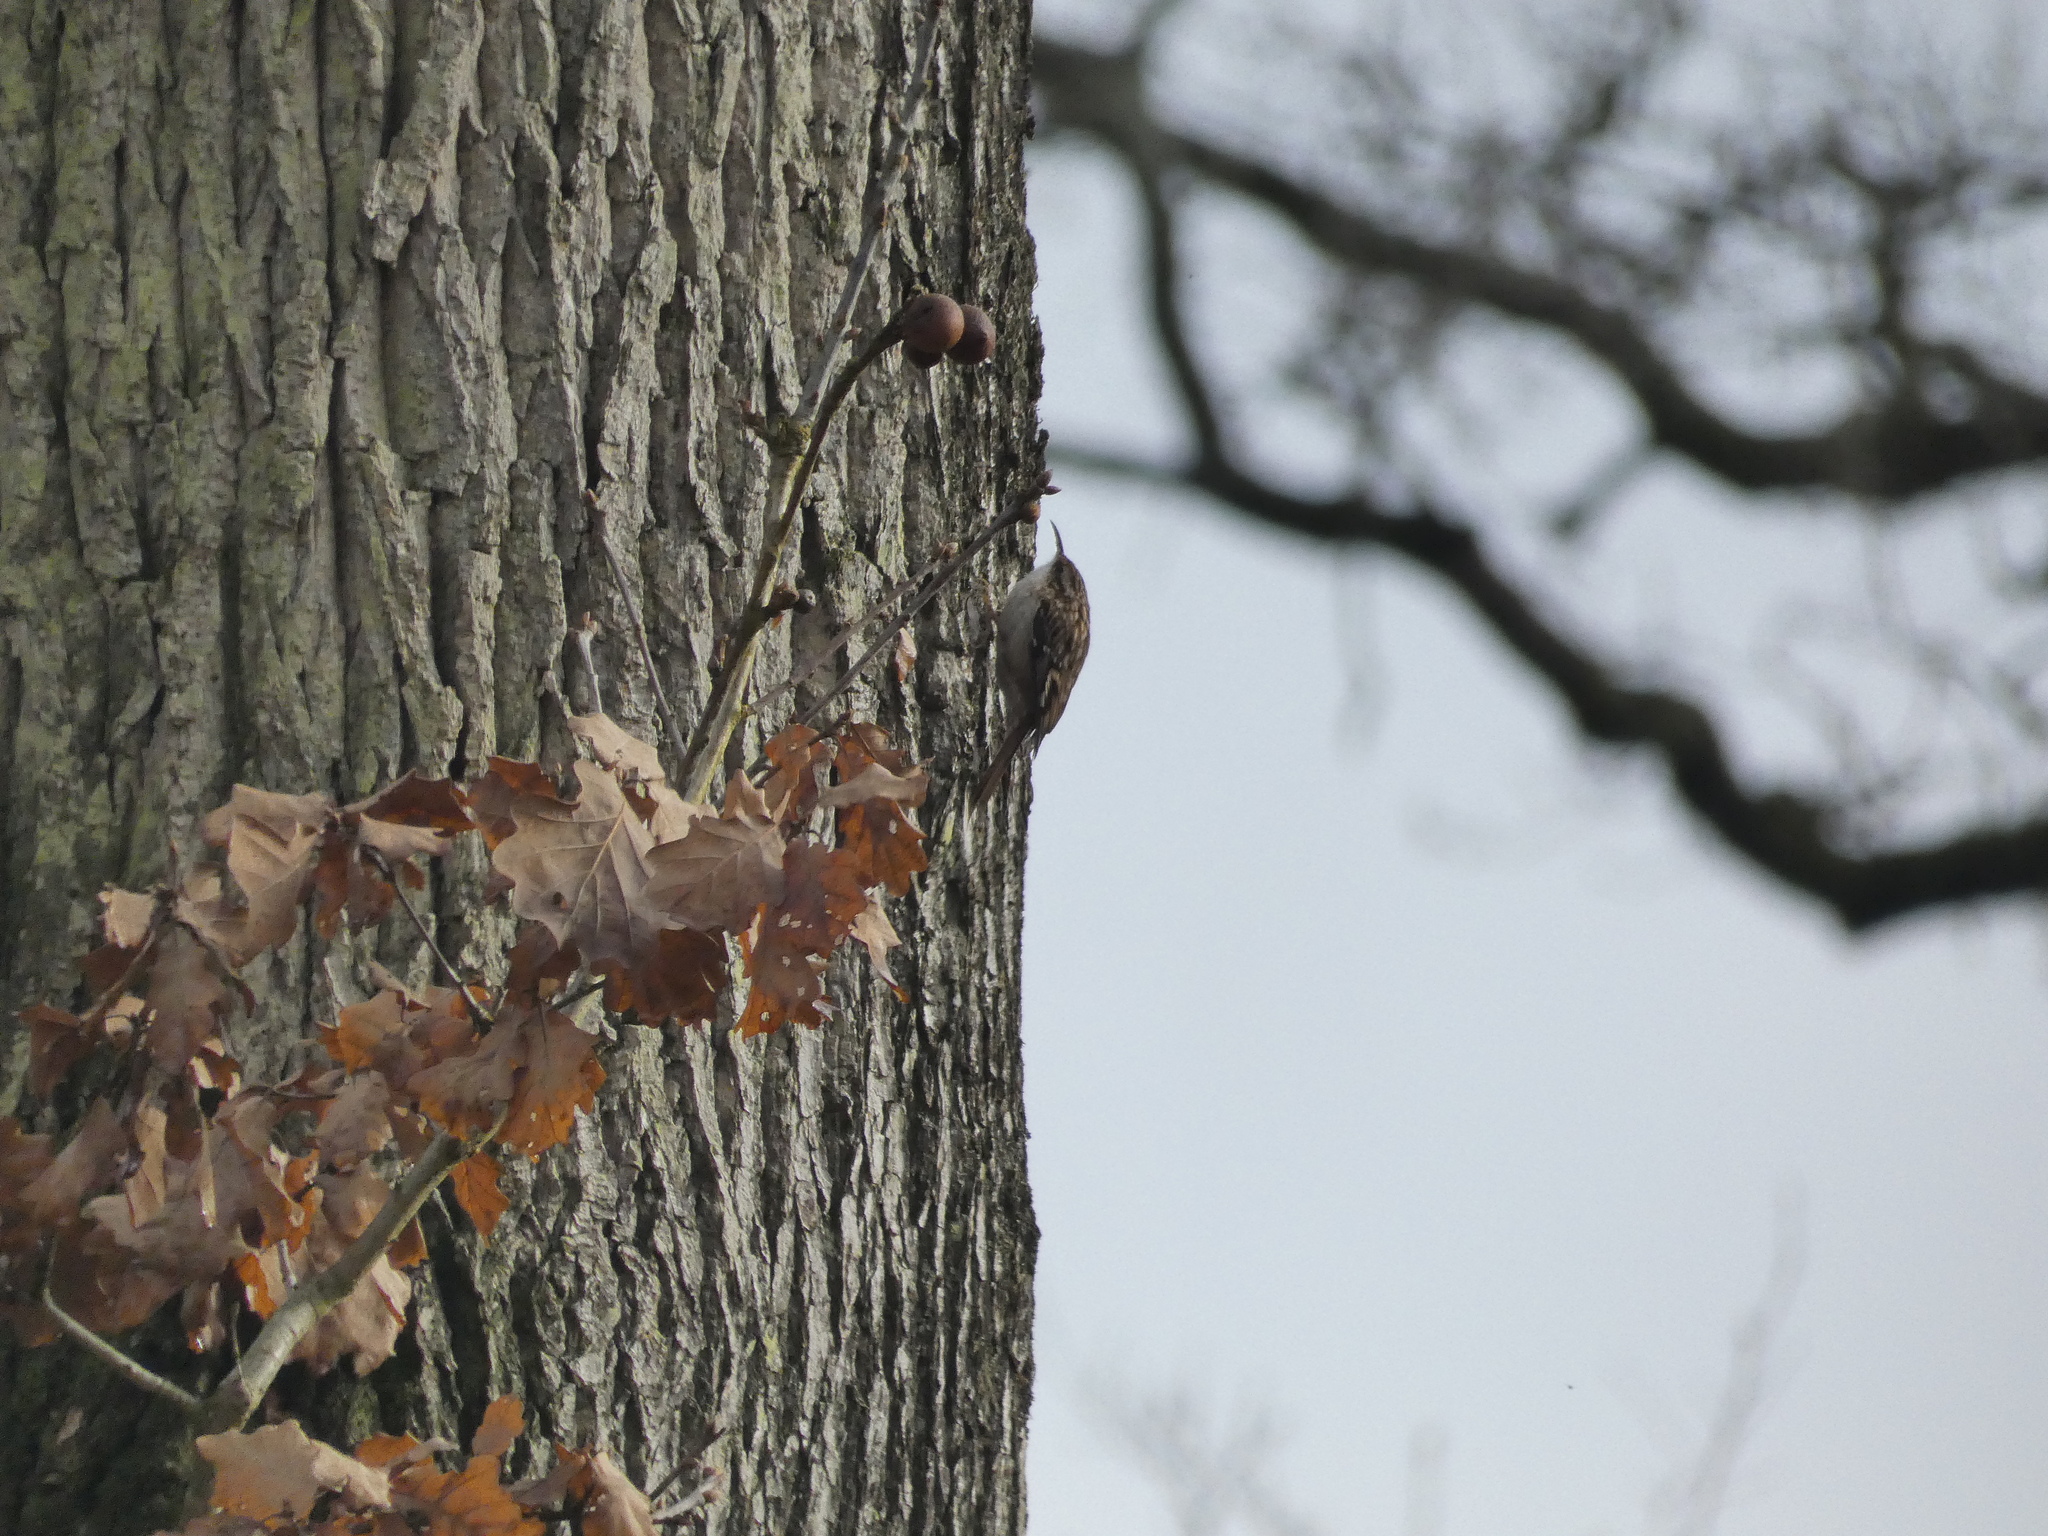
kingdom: Animalia
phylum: Chordata
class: Aves
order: Passeriformes
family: Certhiidae
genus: Certhia
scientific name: Certhia brachydactyla
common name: Short-toed treecreeper
